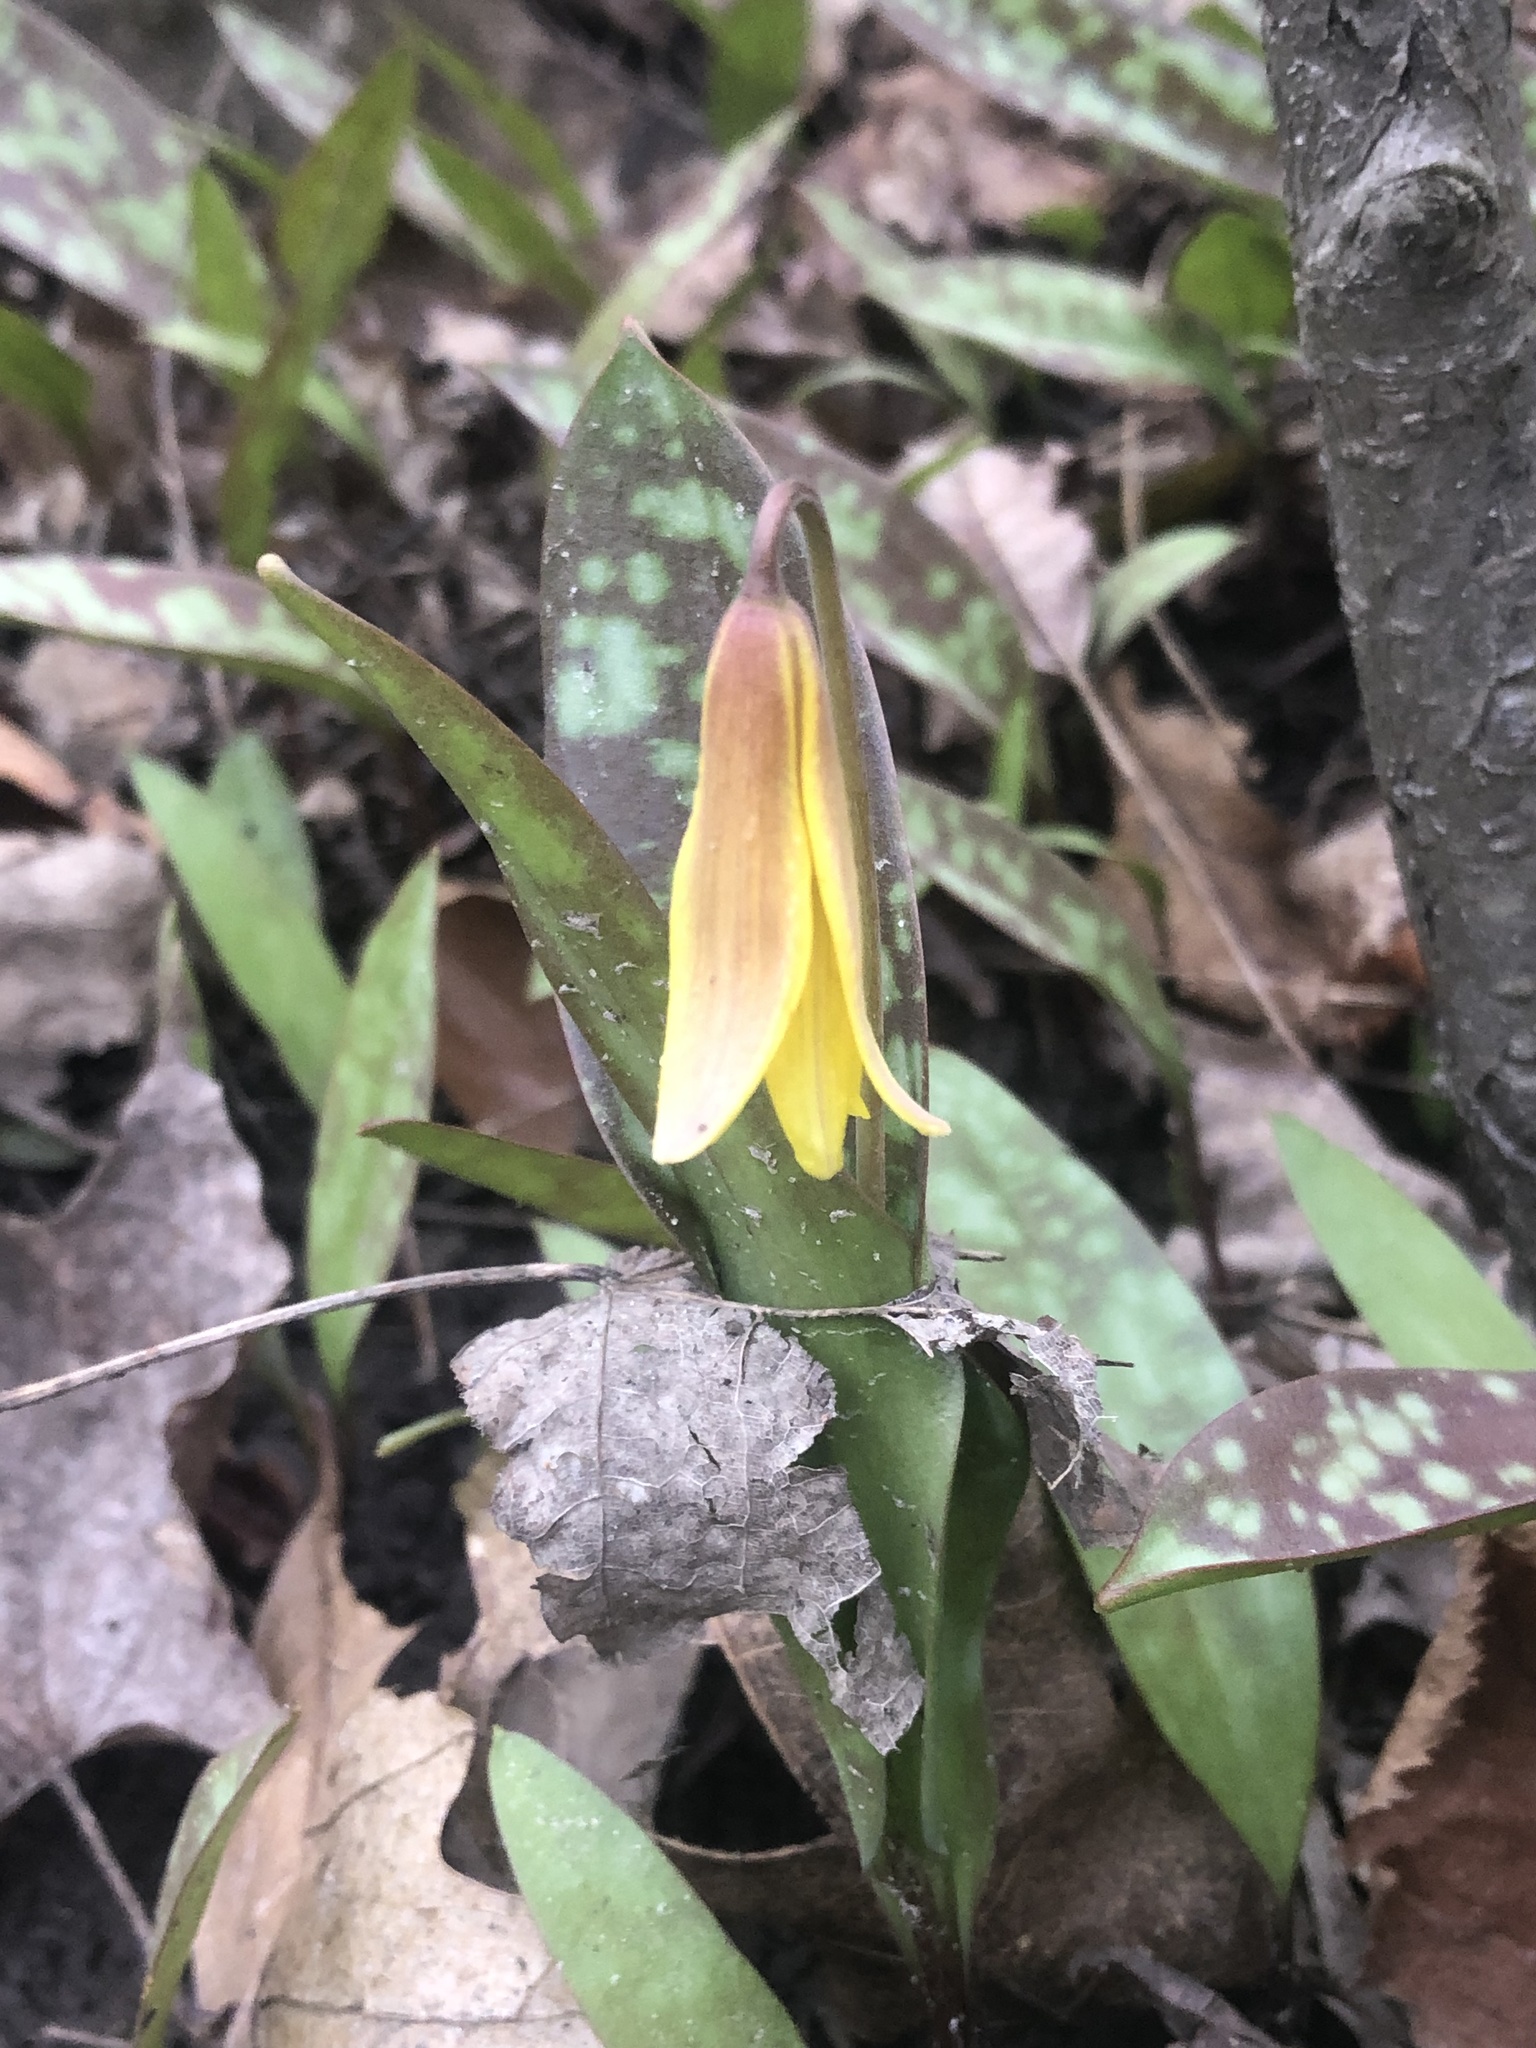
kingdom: Plantae
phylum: Tracheophyta
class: Liliopsida
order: Liliales
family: Liliaceae
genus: Erythronium
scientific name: Erythronium americanum
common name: Yellow adder's-tongue
